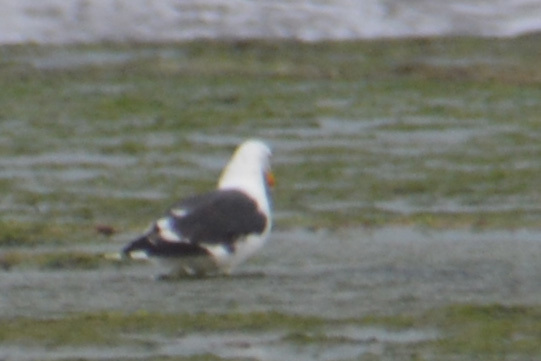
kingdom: Animalia
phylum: Chordata
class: Aves
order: Charadriiformes
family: Laridae
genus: Larus
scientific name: Larus dominicanus
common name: Kelp gull
